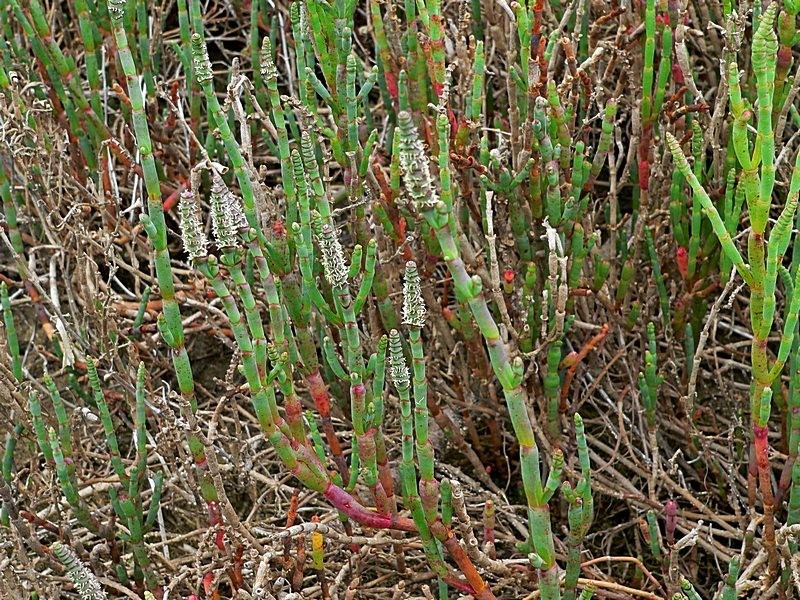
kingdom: Plantae
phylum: Tracheophyta
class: Magnoliopsida
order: Caryophyllales
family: Amaranthaceae
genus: Salicornia
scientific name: Salicornia quinqueflora
